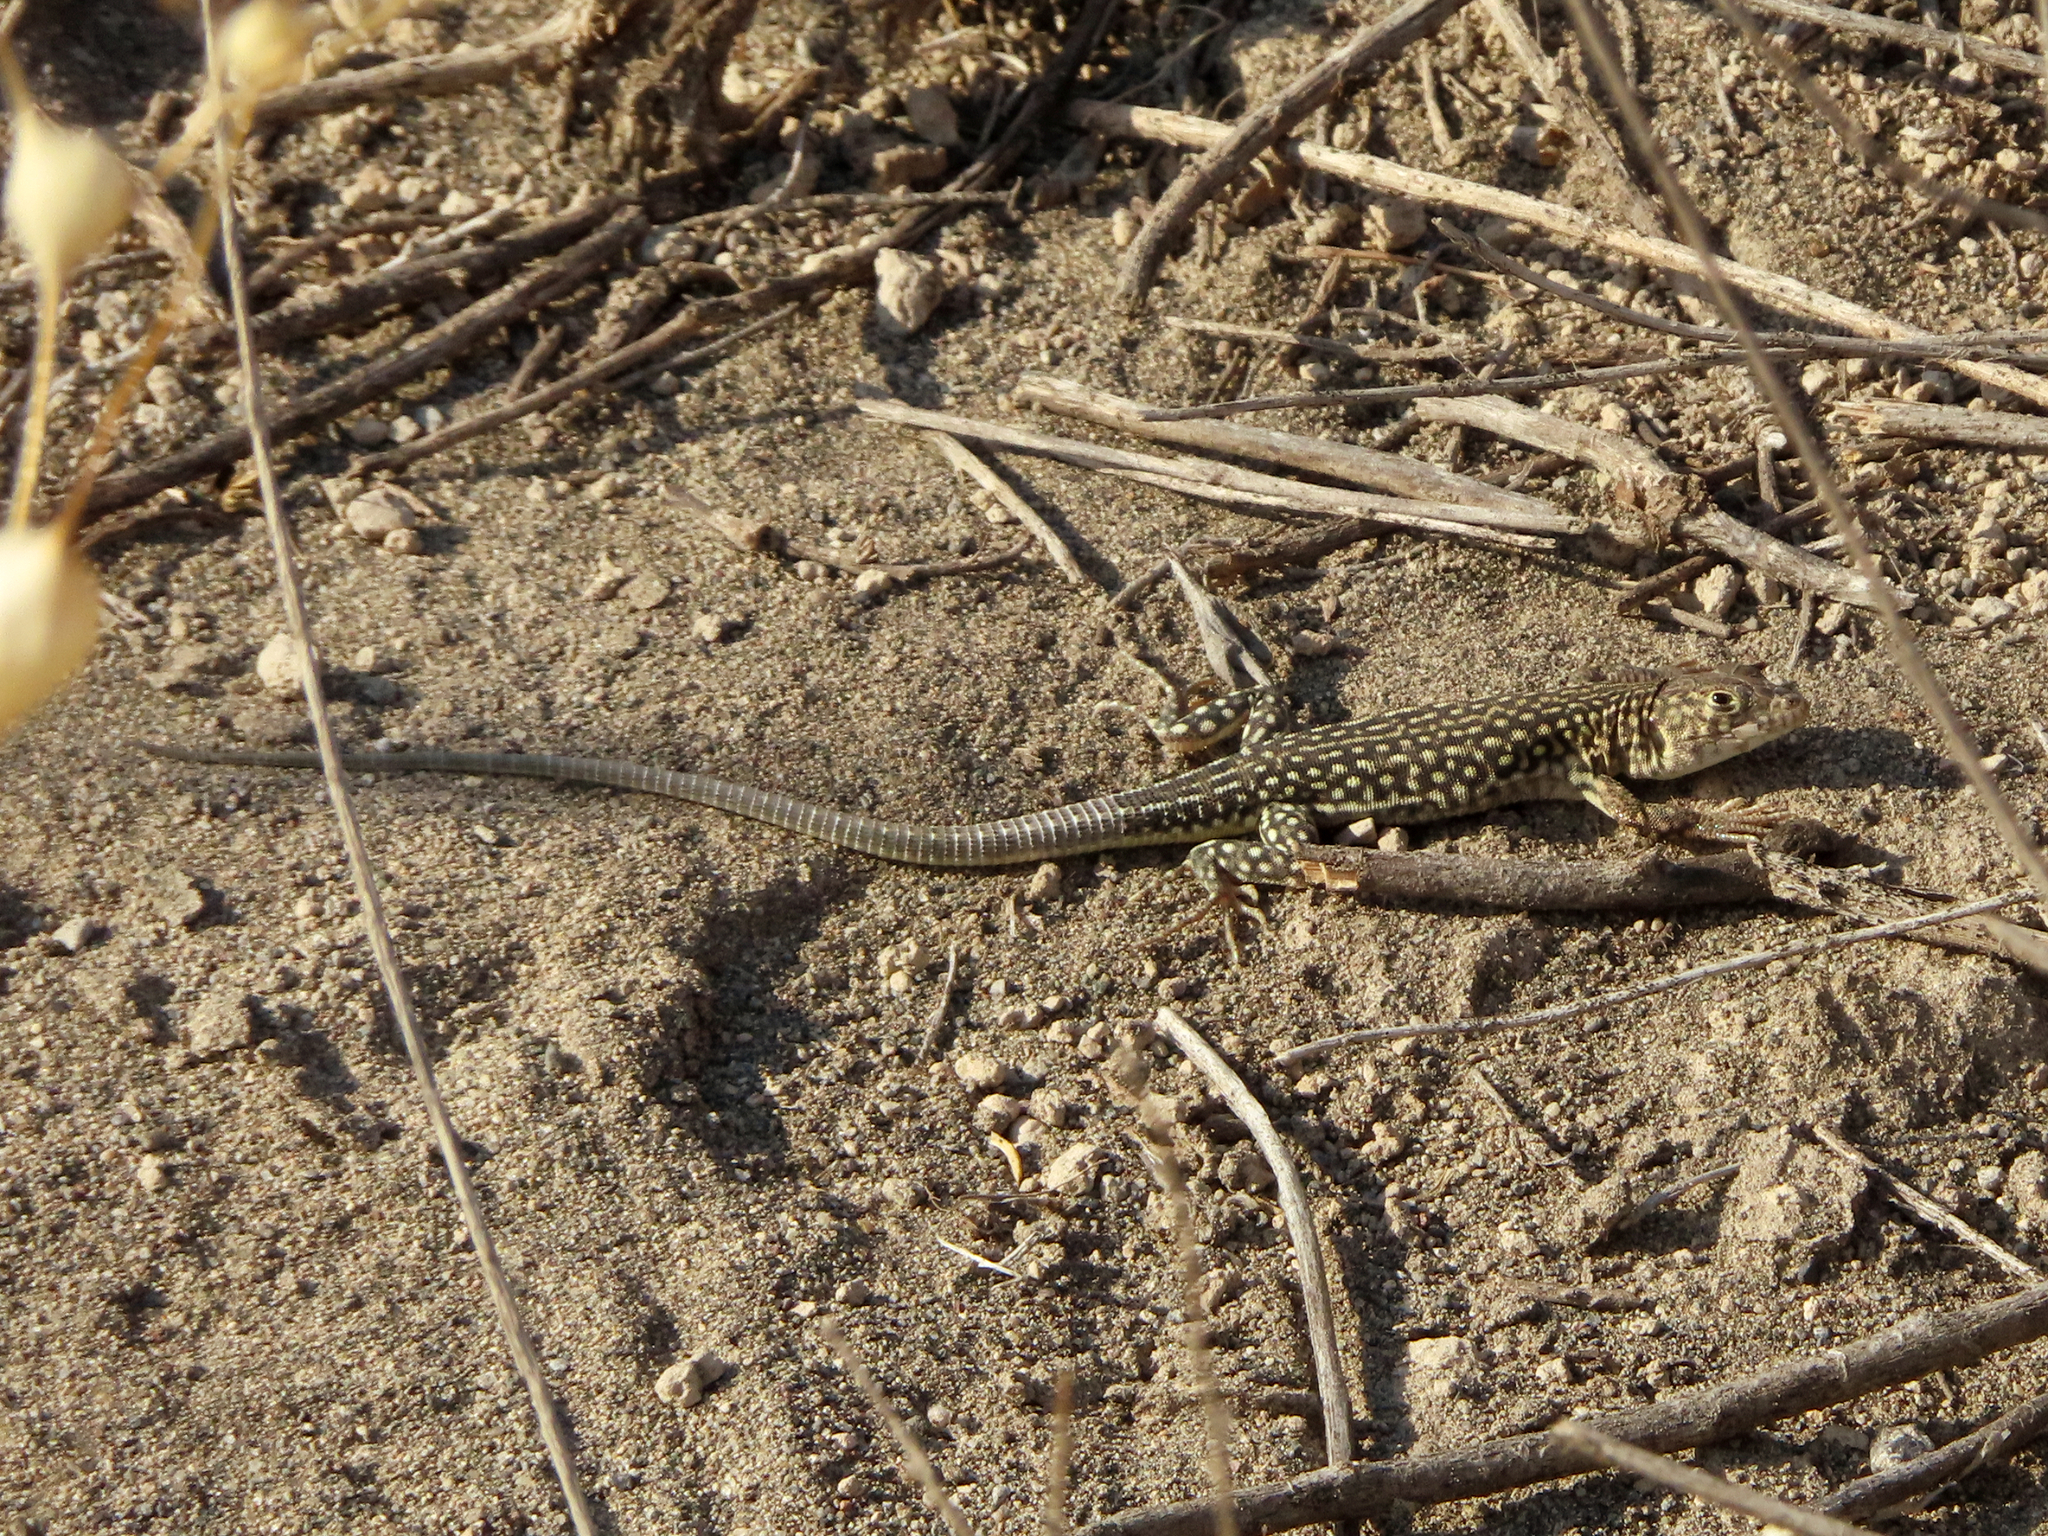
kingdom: Animalia
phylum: Chordata
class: Squamata
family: Lacertidae
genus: Eremias
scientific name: Eremias strauchi
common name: Strauch's racerunner
